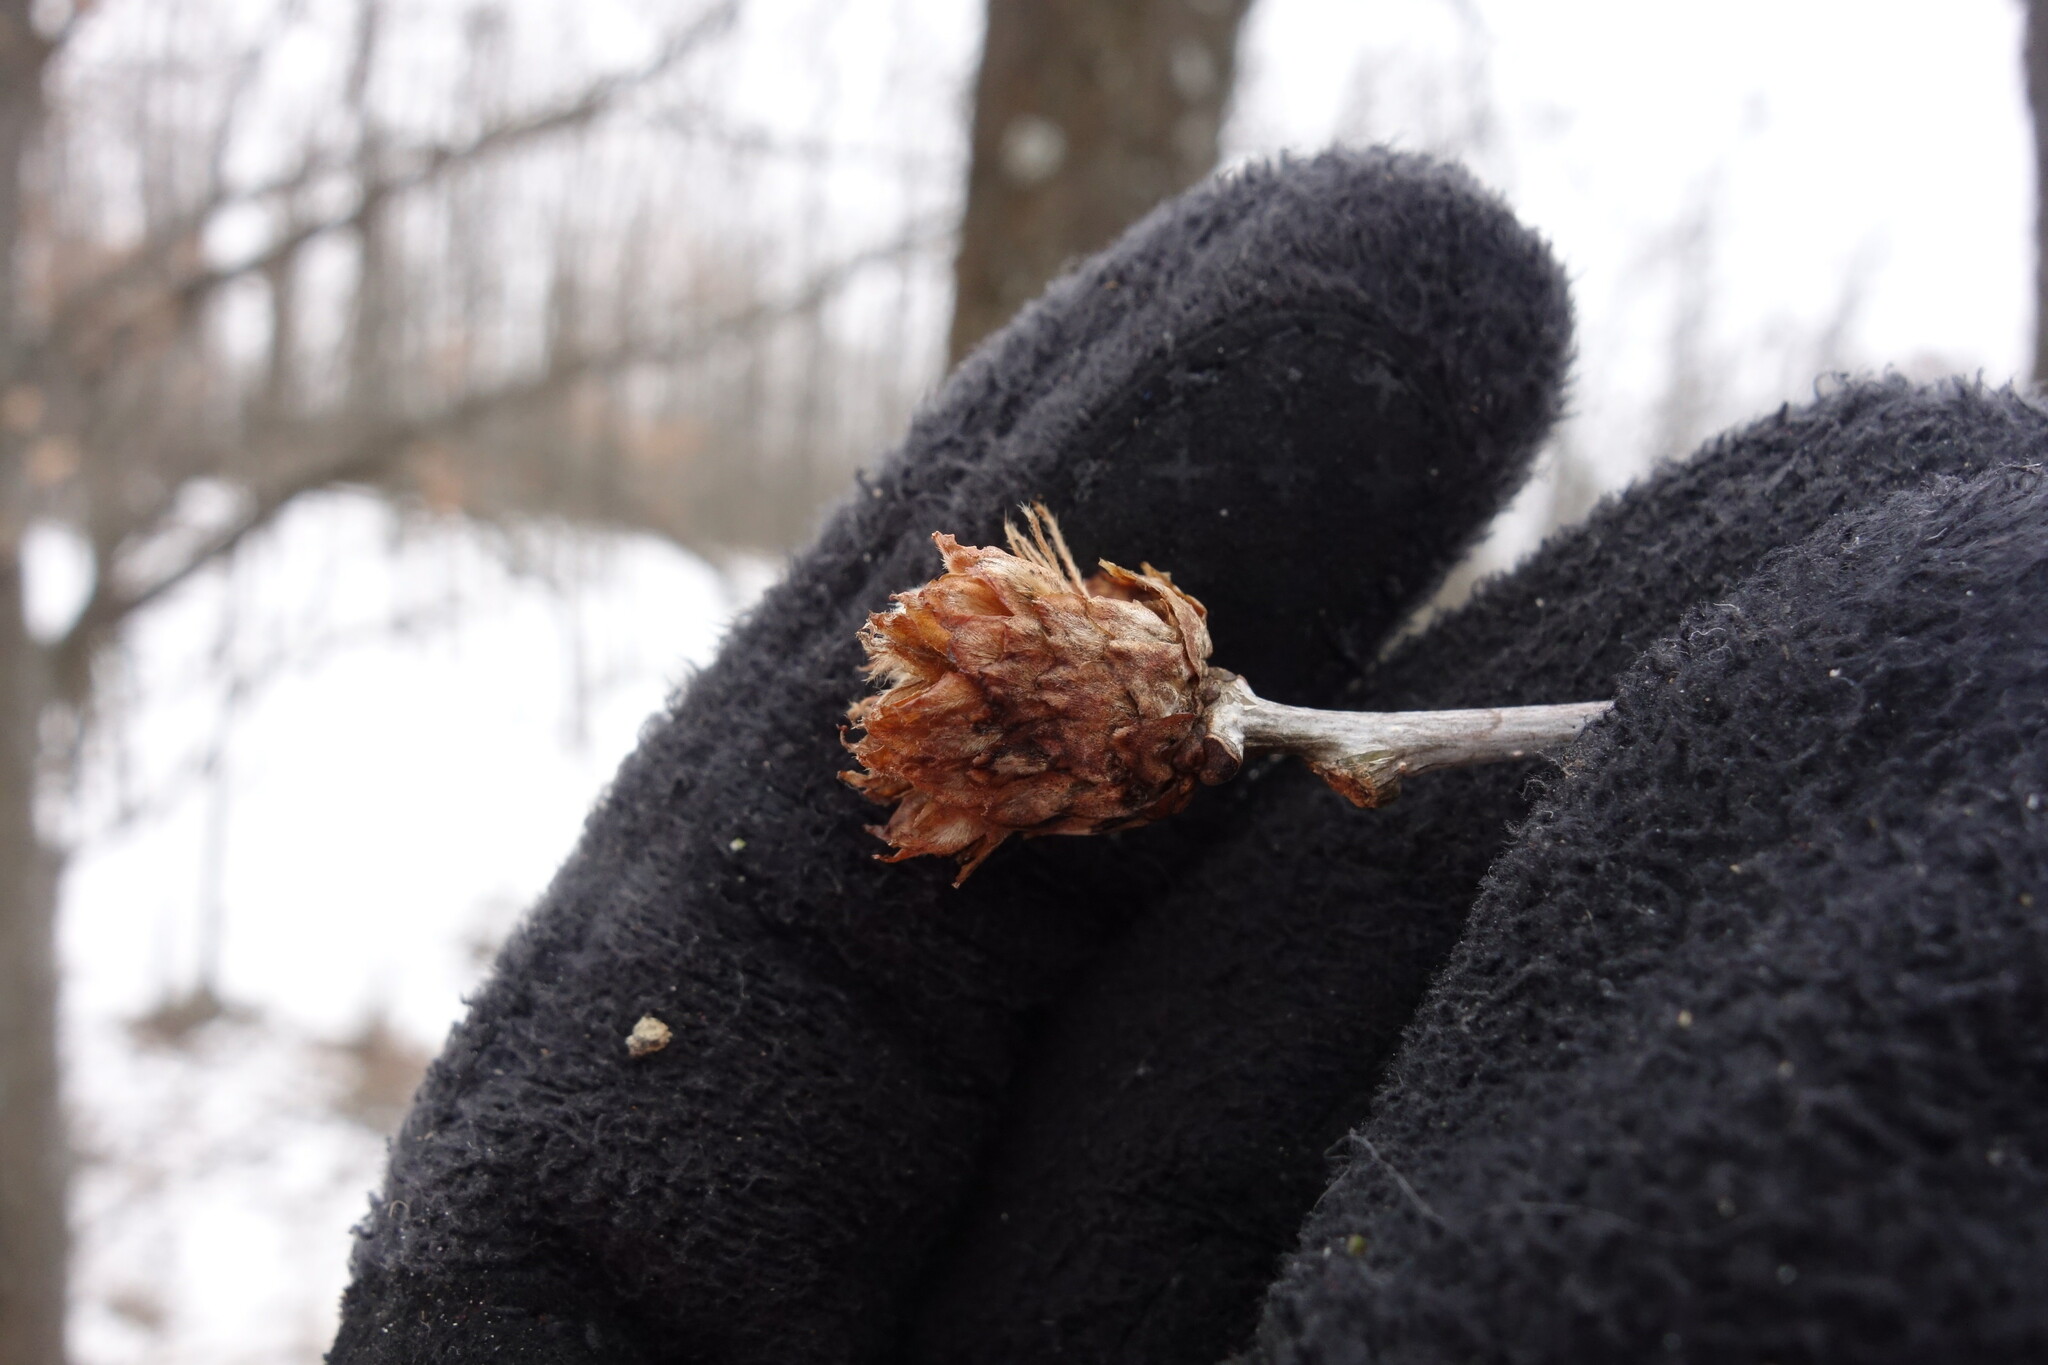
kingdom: Animalia
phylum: Arthropoda
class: Insecta
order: Hymenoptera
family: Cynipidae
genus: Andricus
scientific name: Andricus foecundatrix
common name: Artichoke gall
